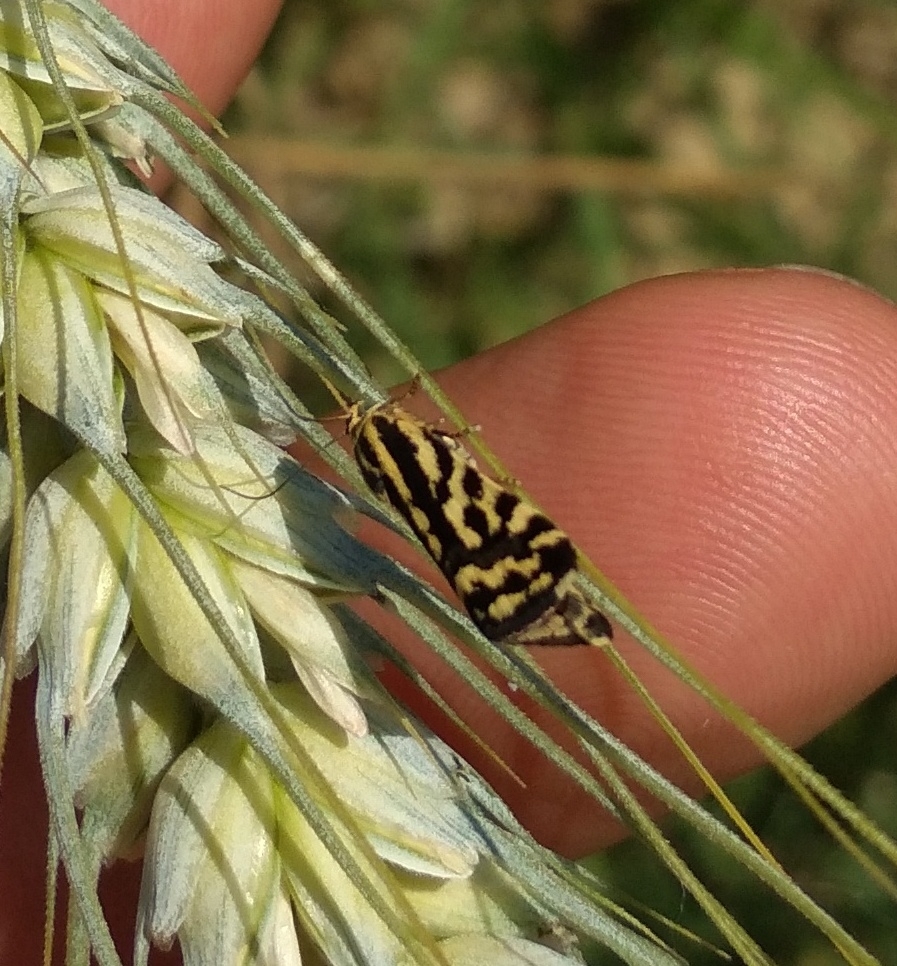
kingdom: Animalia
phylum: Arthropoda
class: Insecta
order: Lepidoptera
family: Noctuidae
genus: Acontia
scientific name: Acontia trabealis
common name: Spotted sulphur
